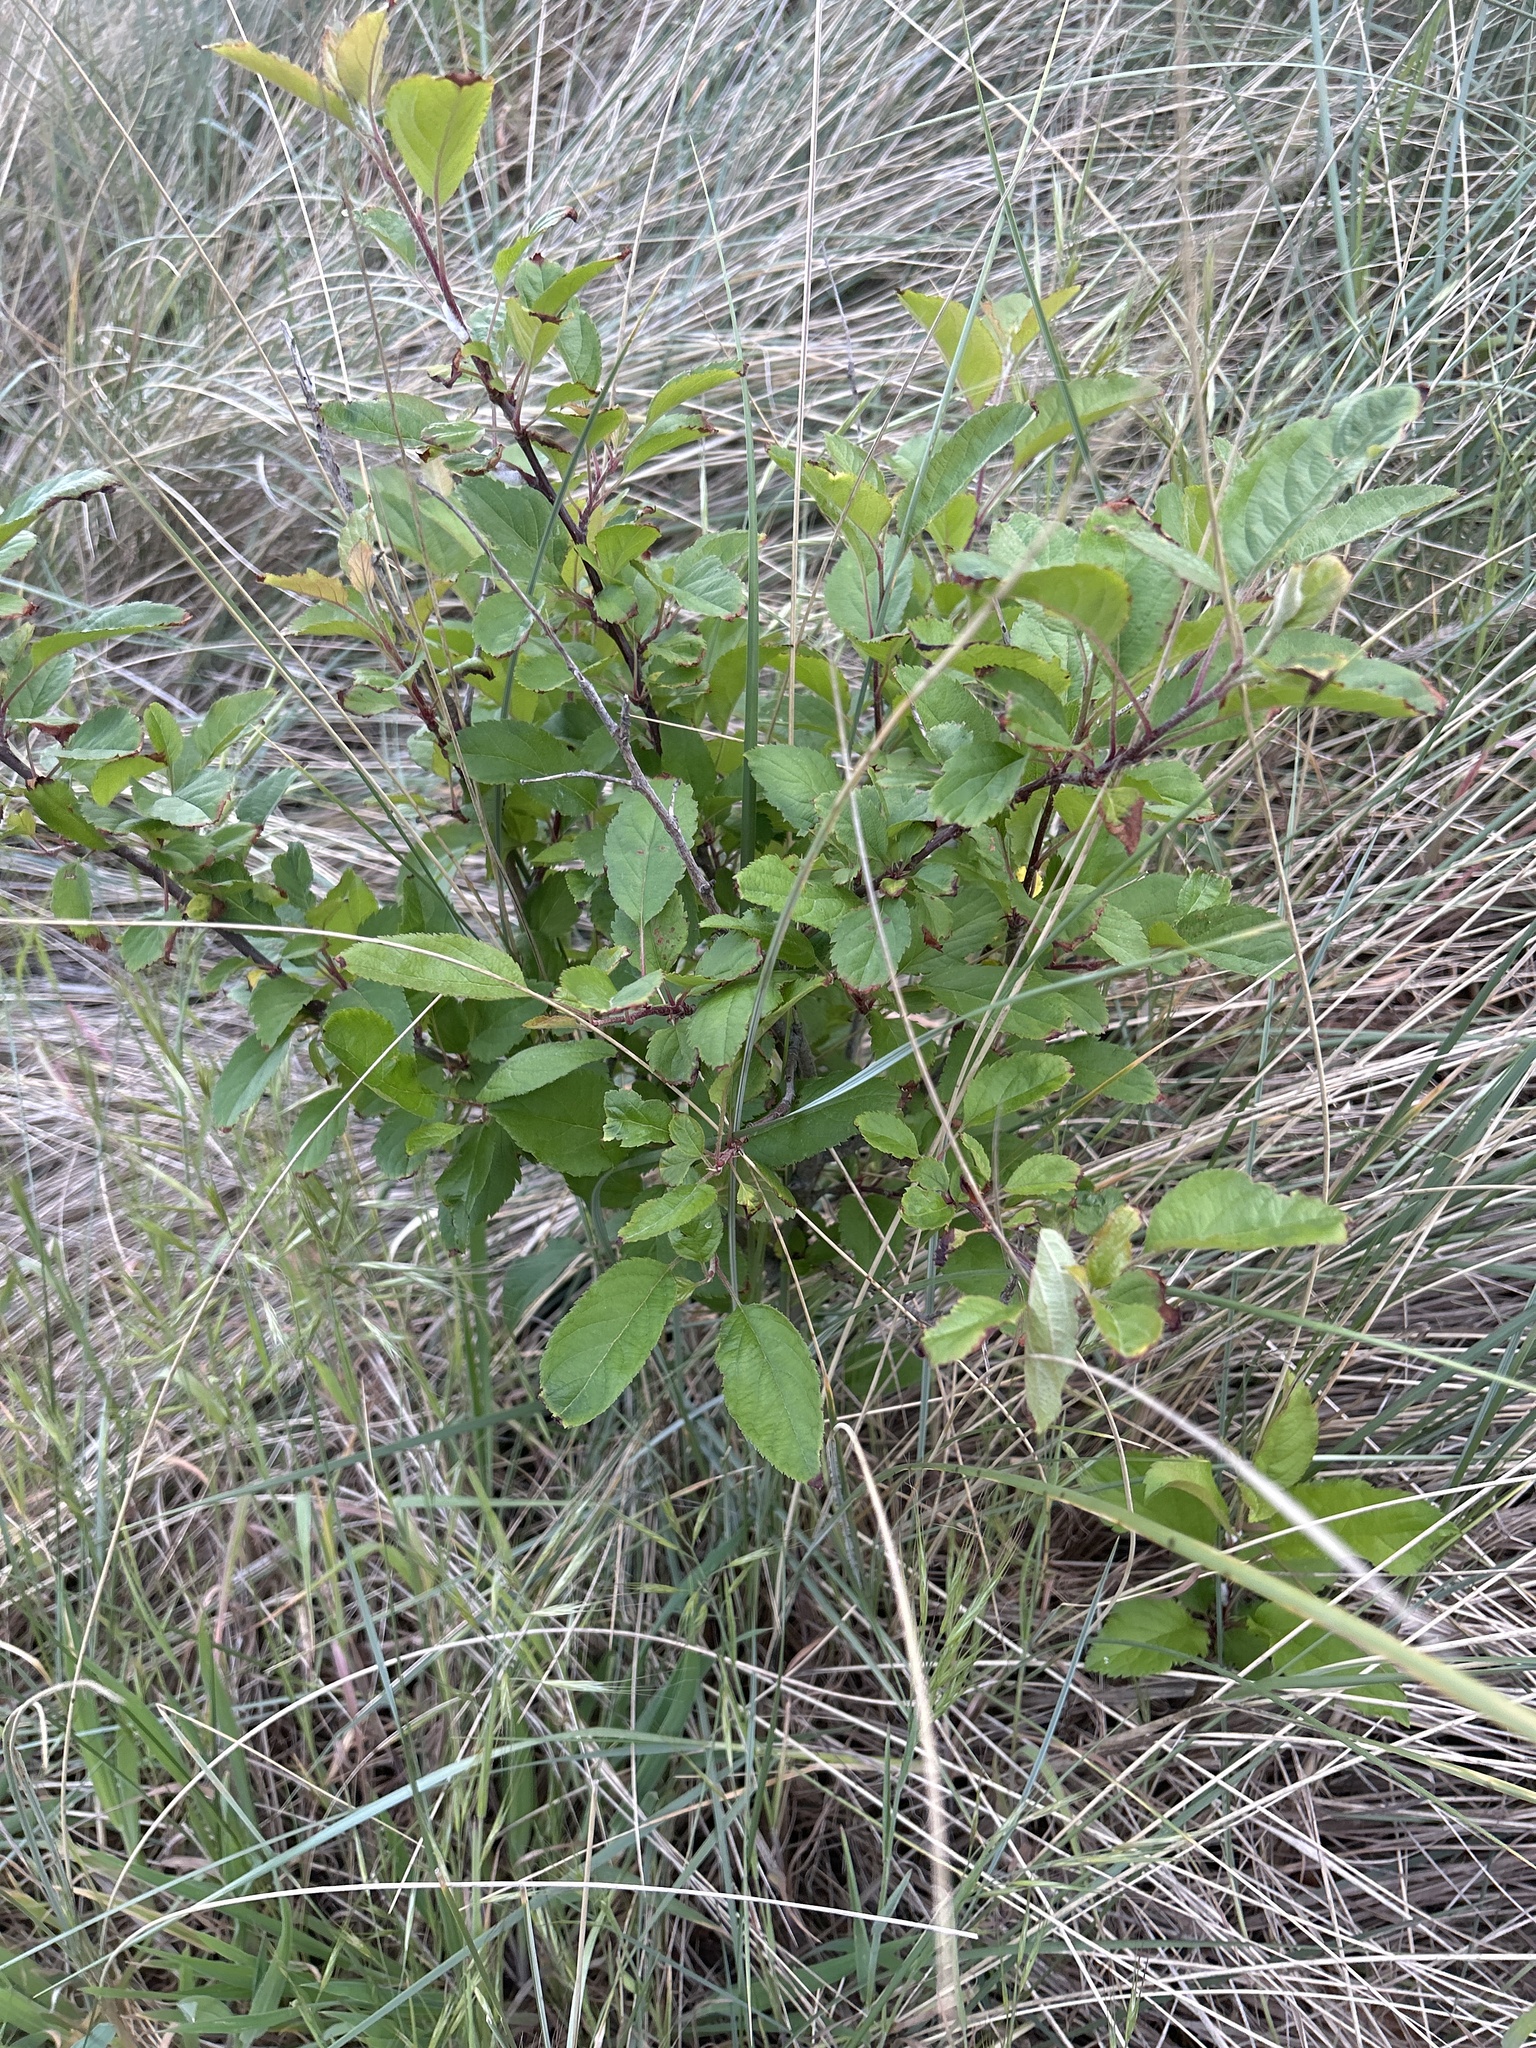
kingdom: Plantae
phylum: Tracheophyta
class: Magnoliopsida
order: Rosales
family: Rosaceae
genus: Malus
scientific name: Malus domestica
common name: Apple
